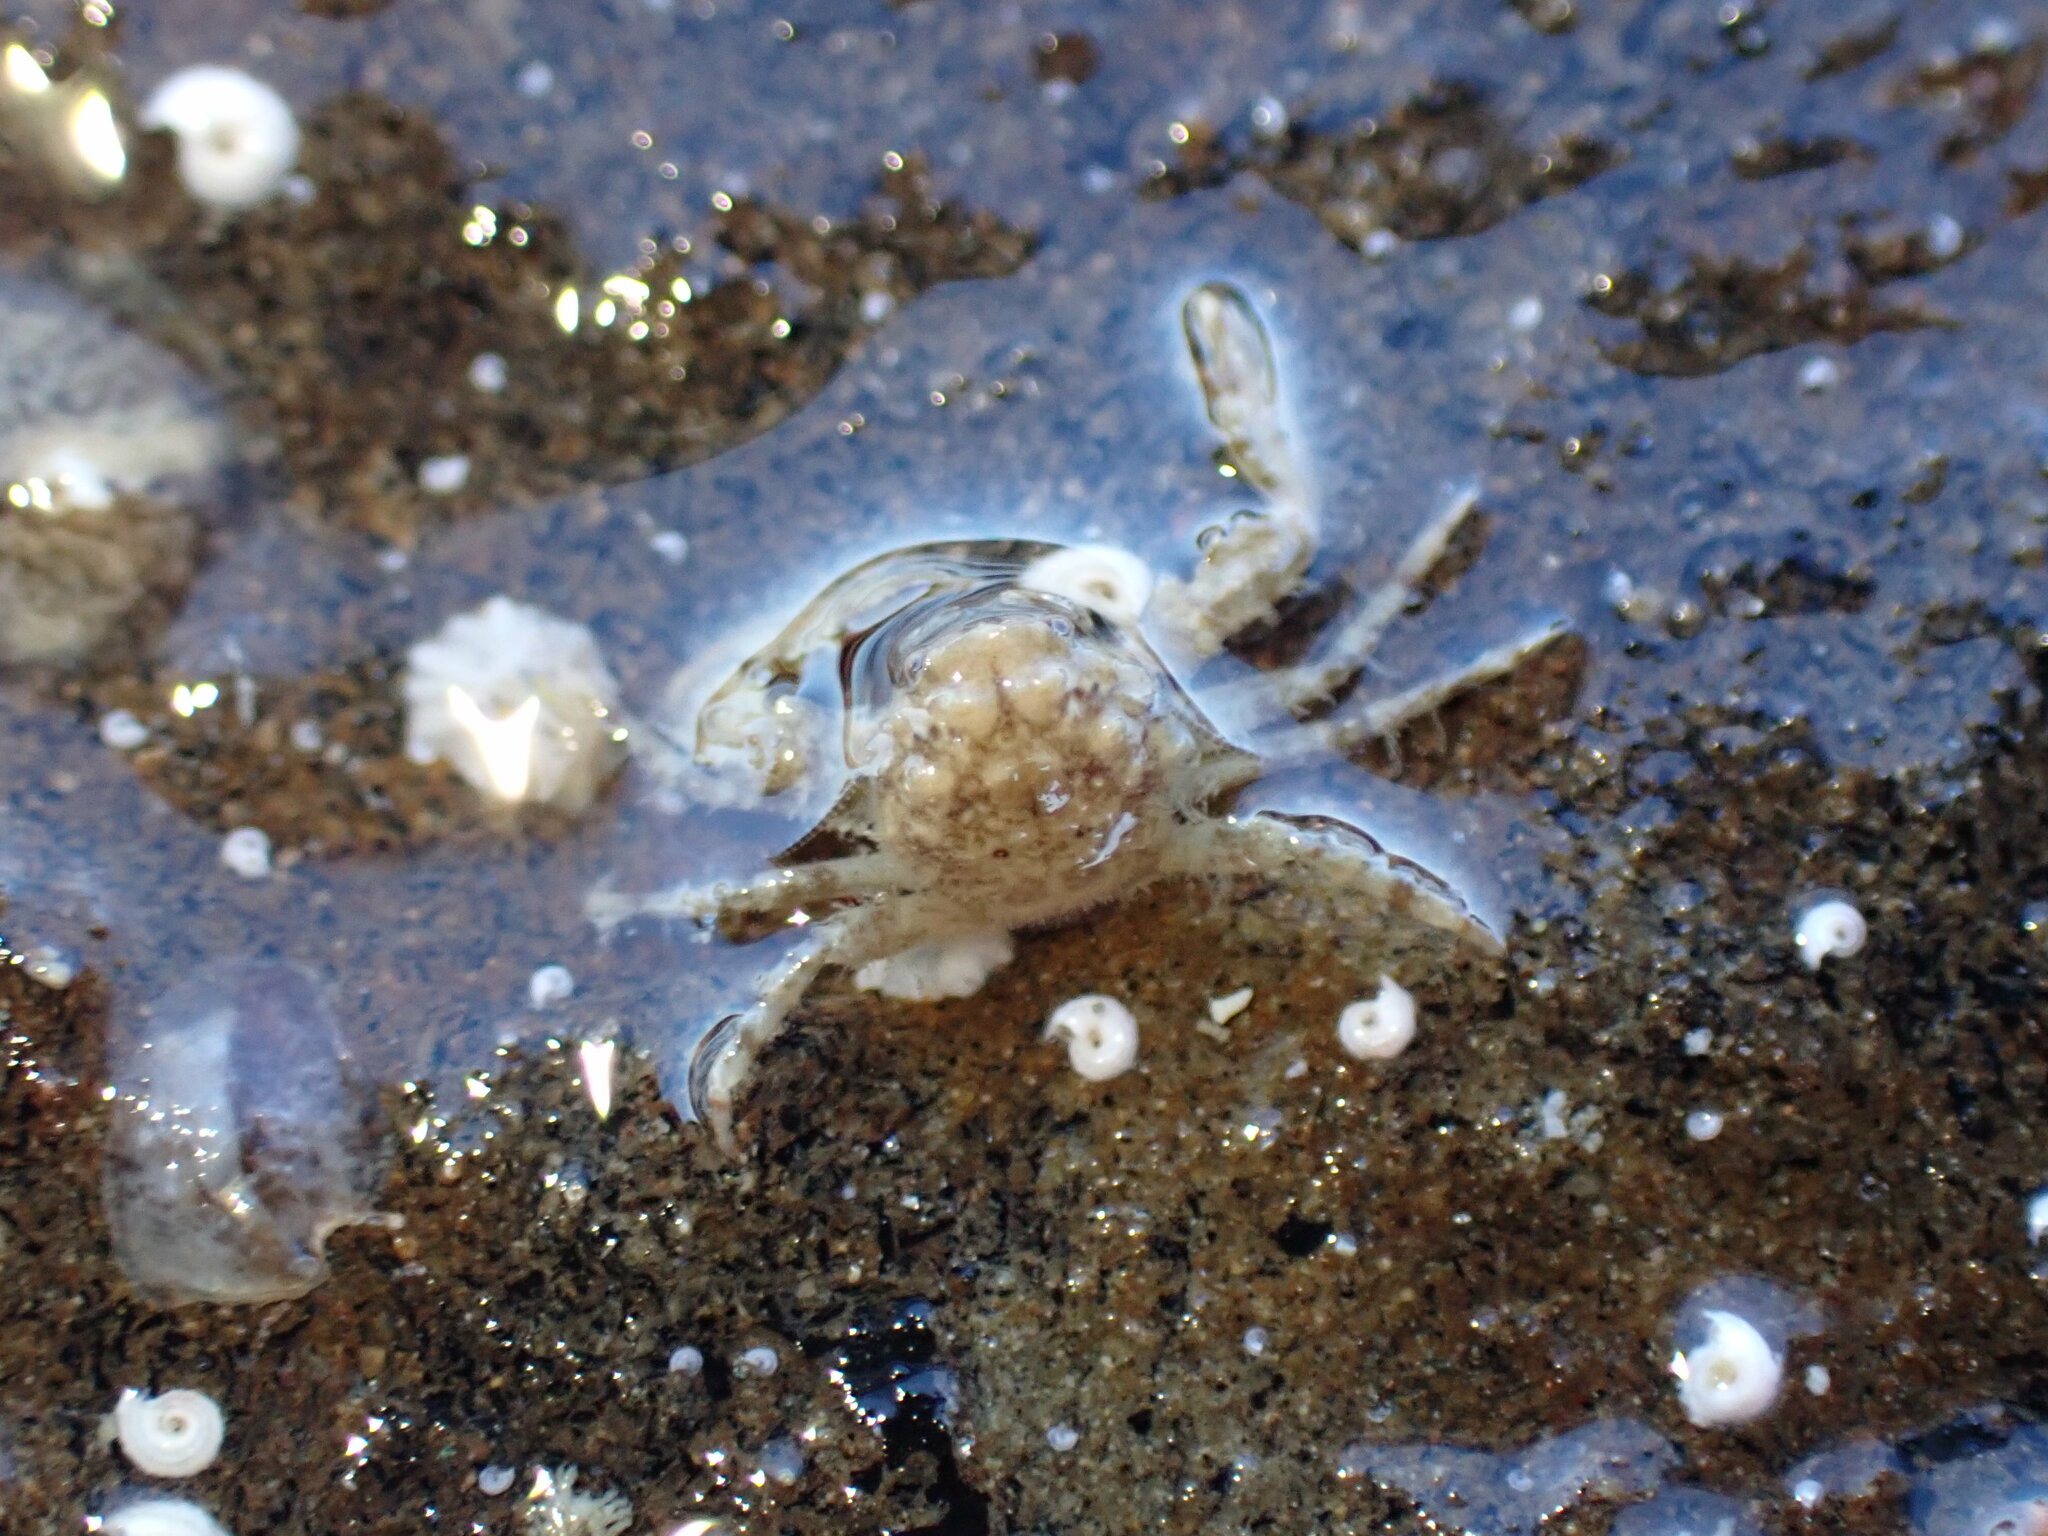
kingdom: Animalia
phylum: Arthropoda
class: Malacostraca
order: Decapoda
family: Porcellanidae
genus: Petrocheles
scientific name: Petrocheles spinosus
